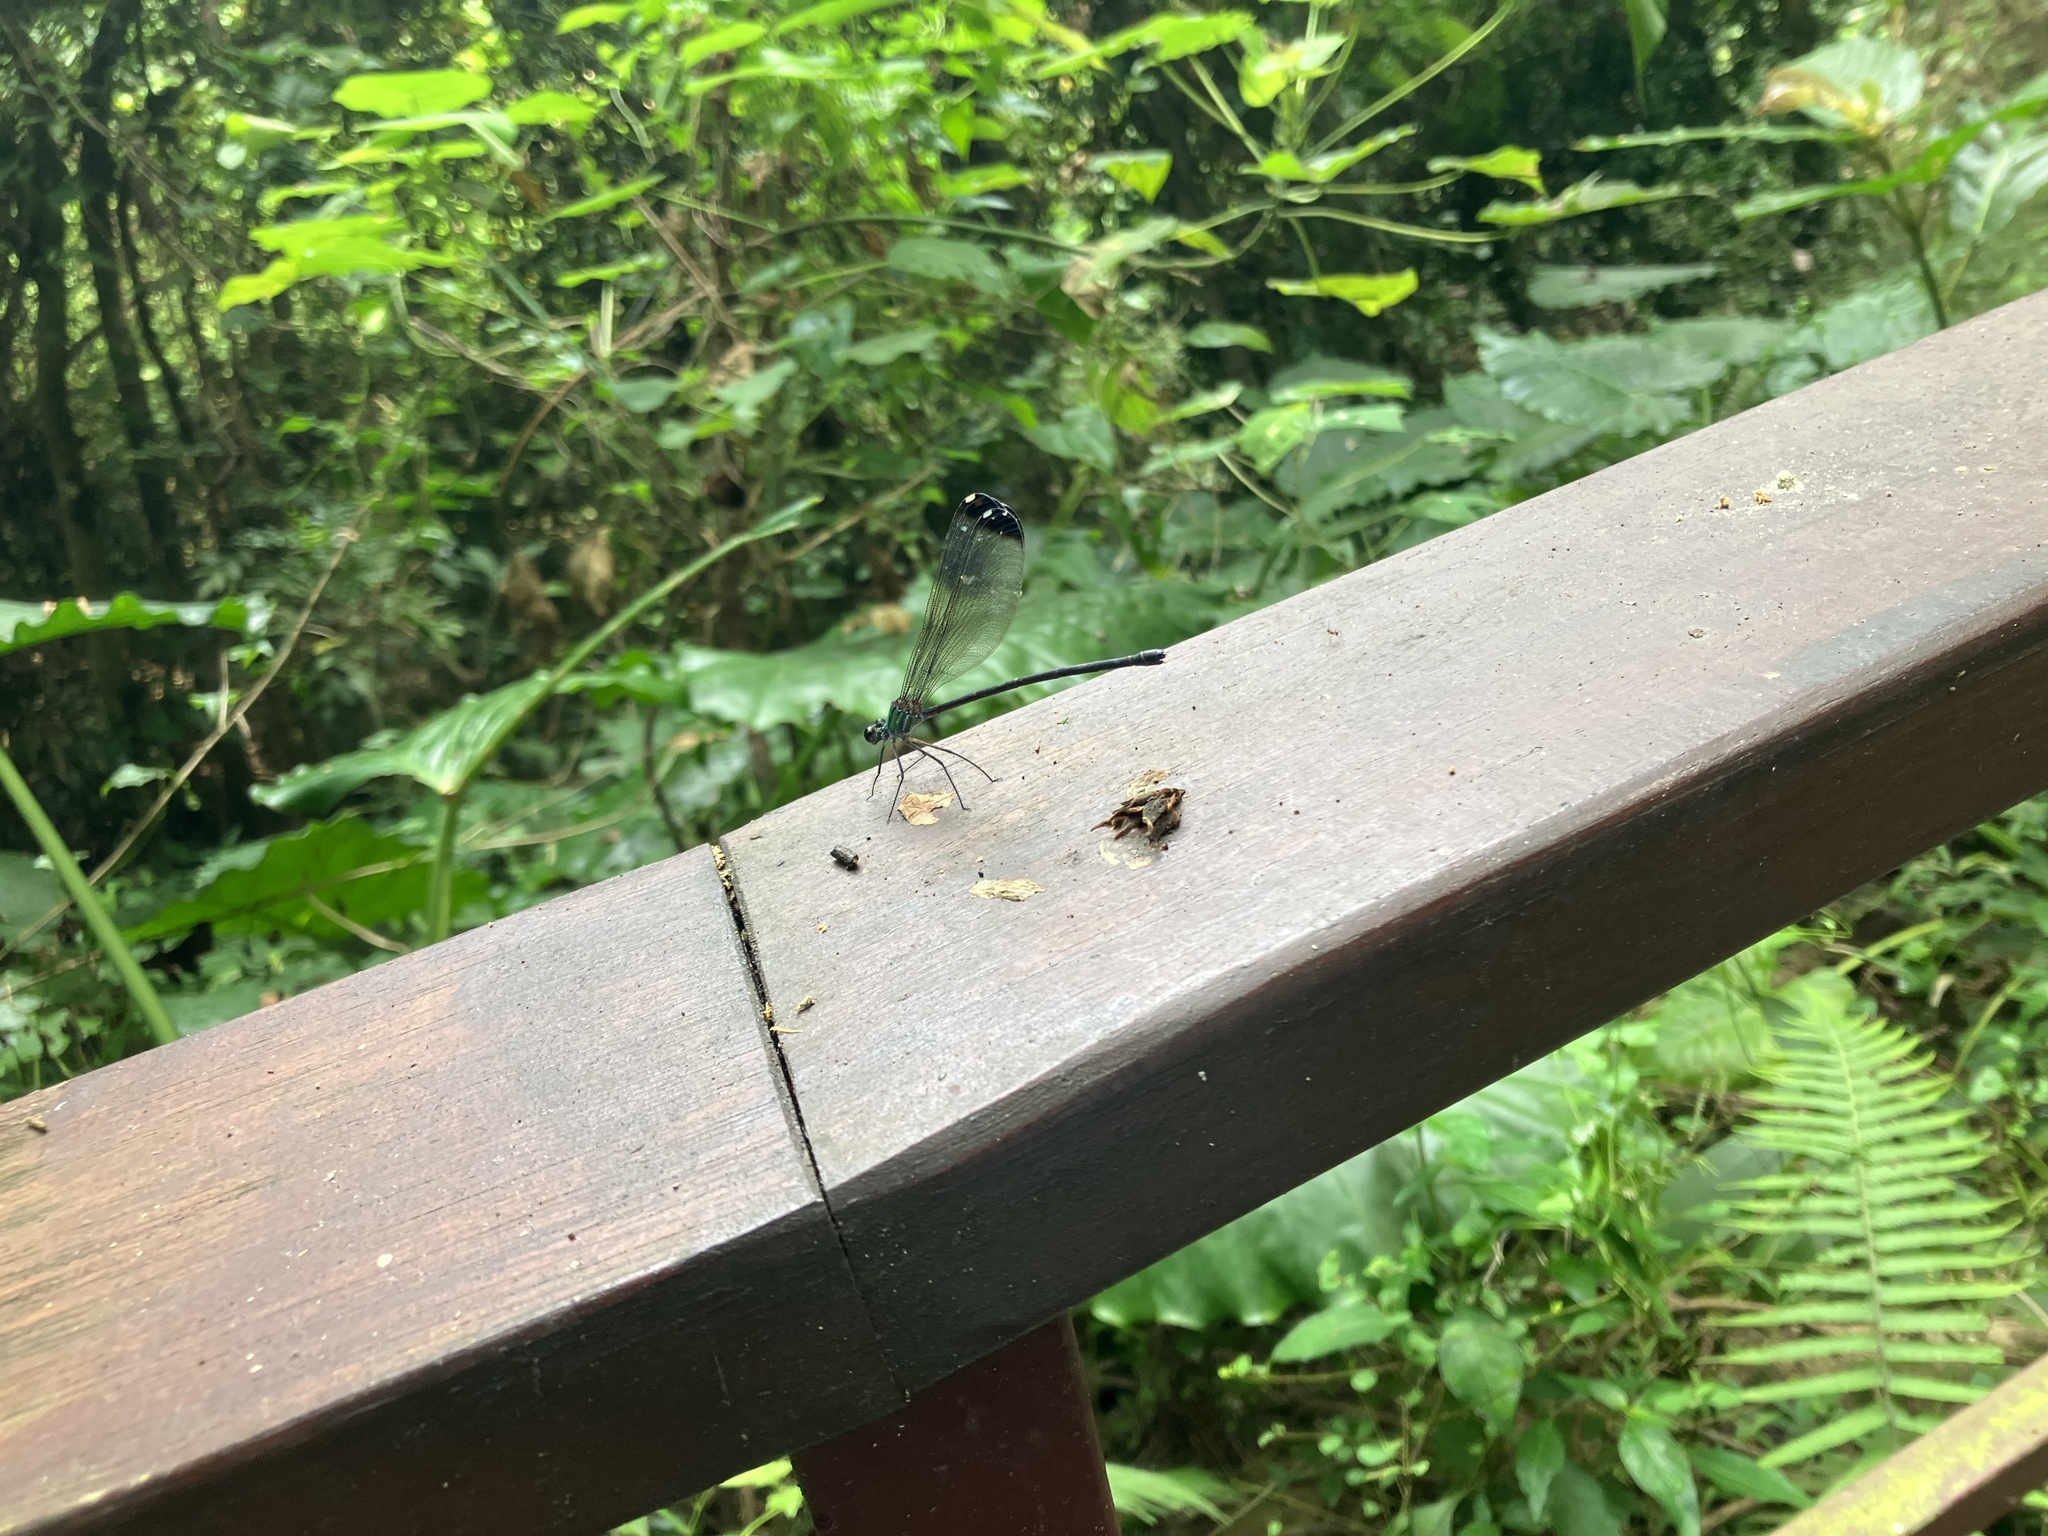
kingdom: Animalia
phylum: Arthropoda
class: Insecta
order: Odonata
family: Calopterygidae
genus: Psolodesmus
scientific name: Psolodesmus mandarinus
